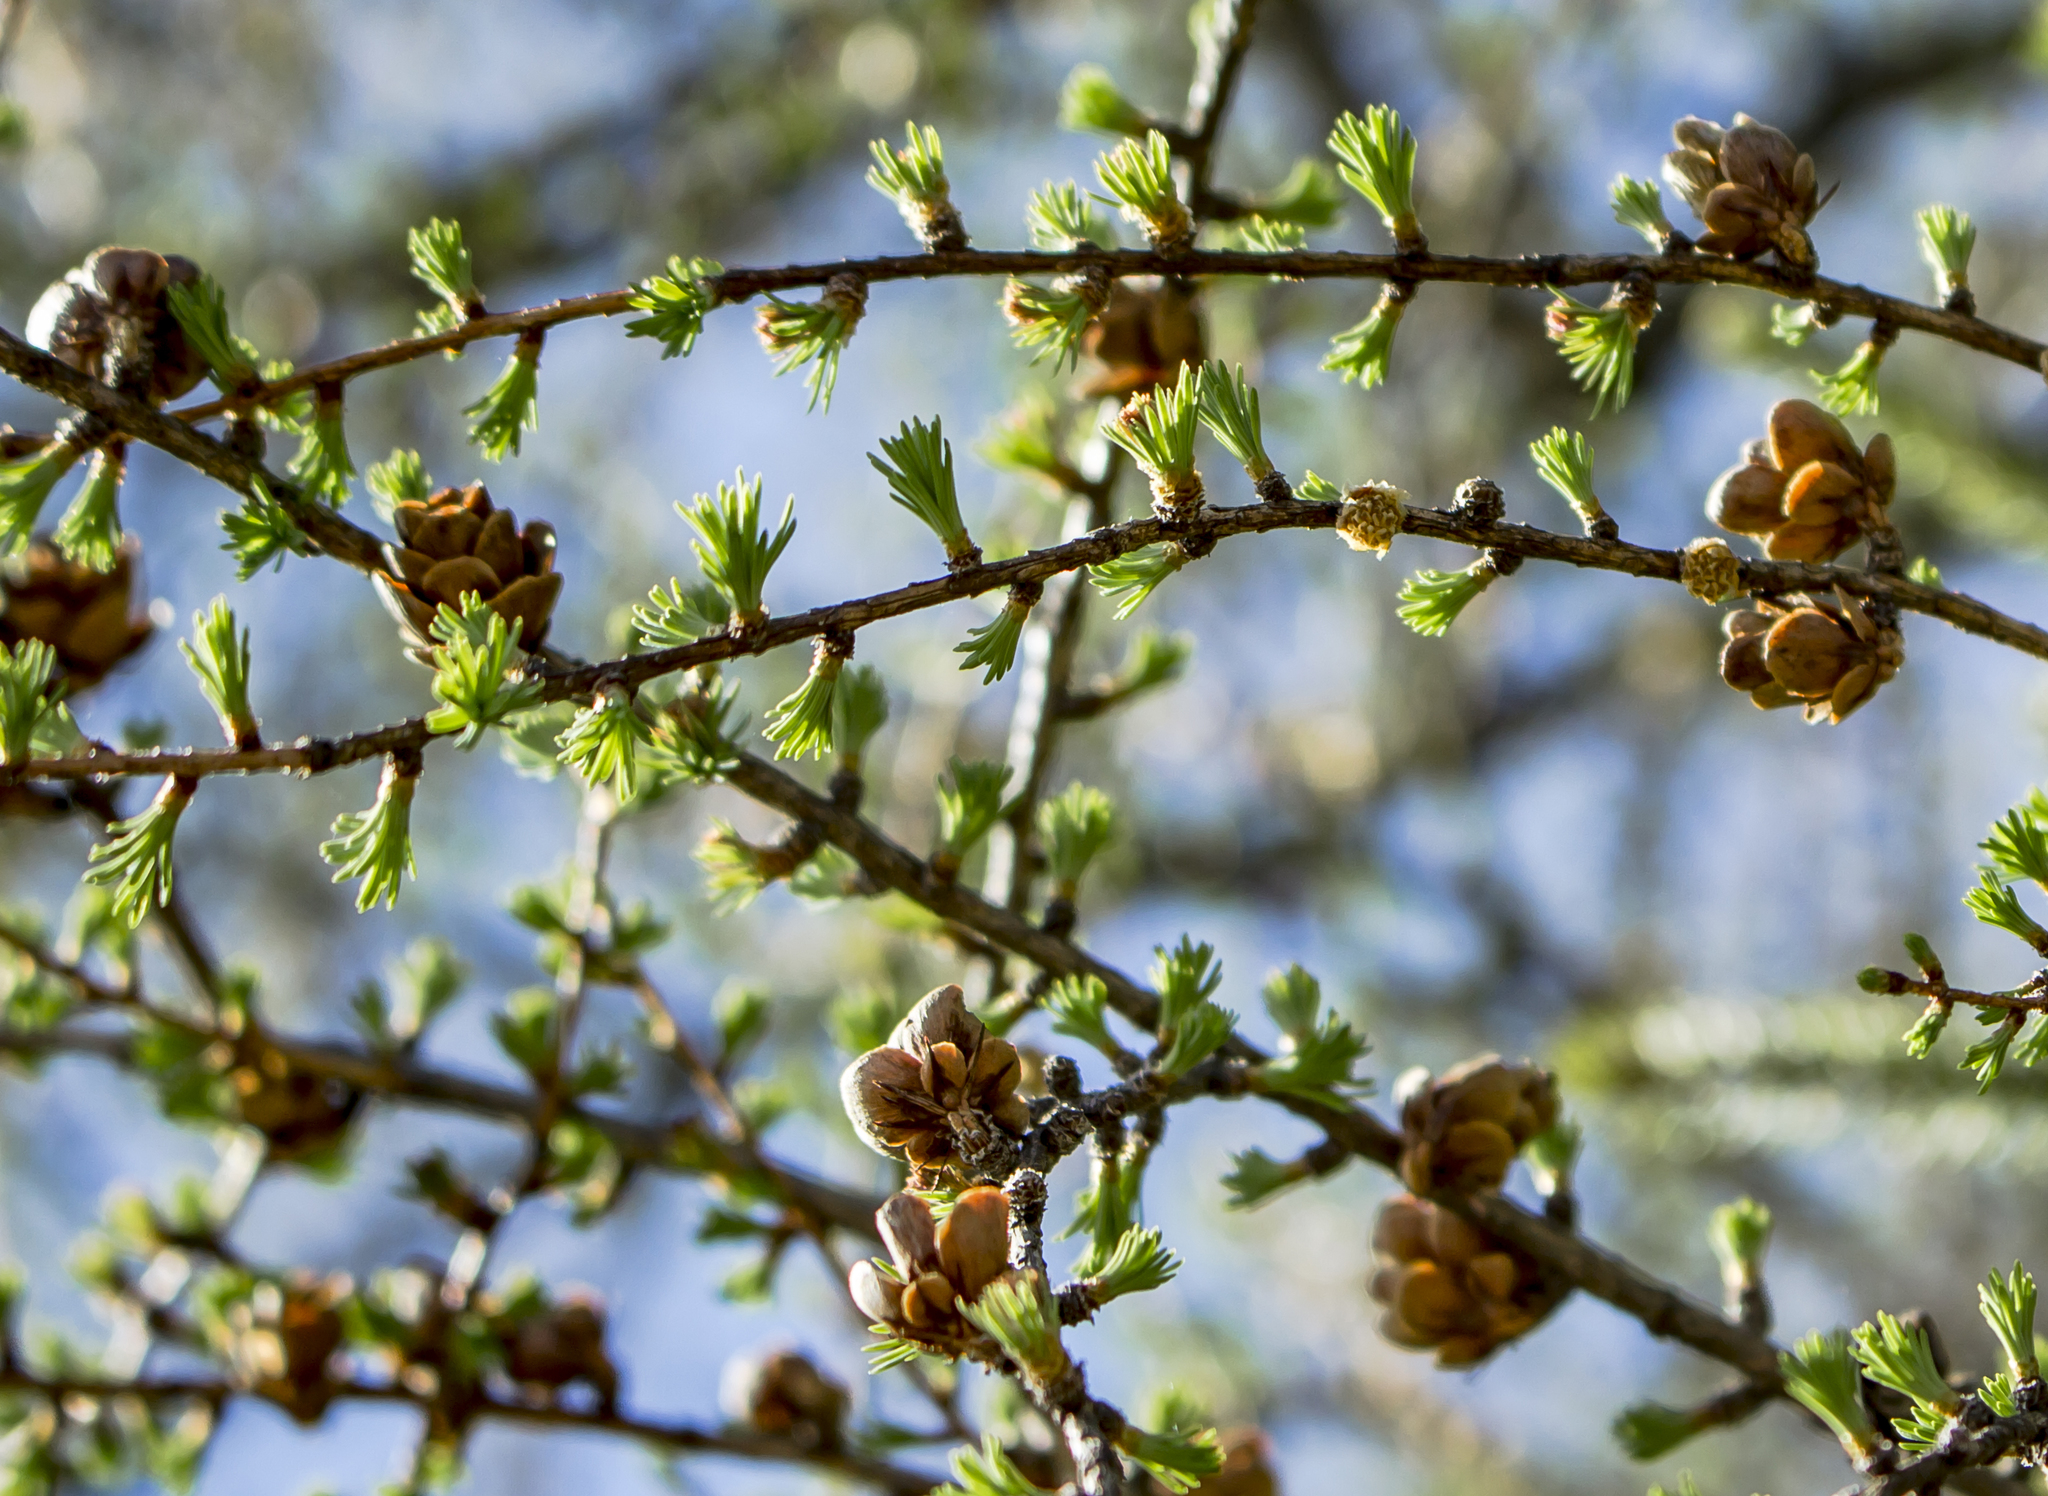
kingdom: Plantae
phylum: Tracheophyta
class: Pinopsida
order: Pinales
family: Pinaceae
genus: Larix
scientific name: Larix laricina
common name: American larch
